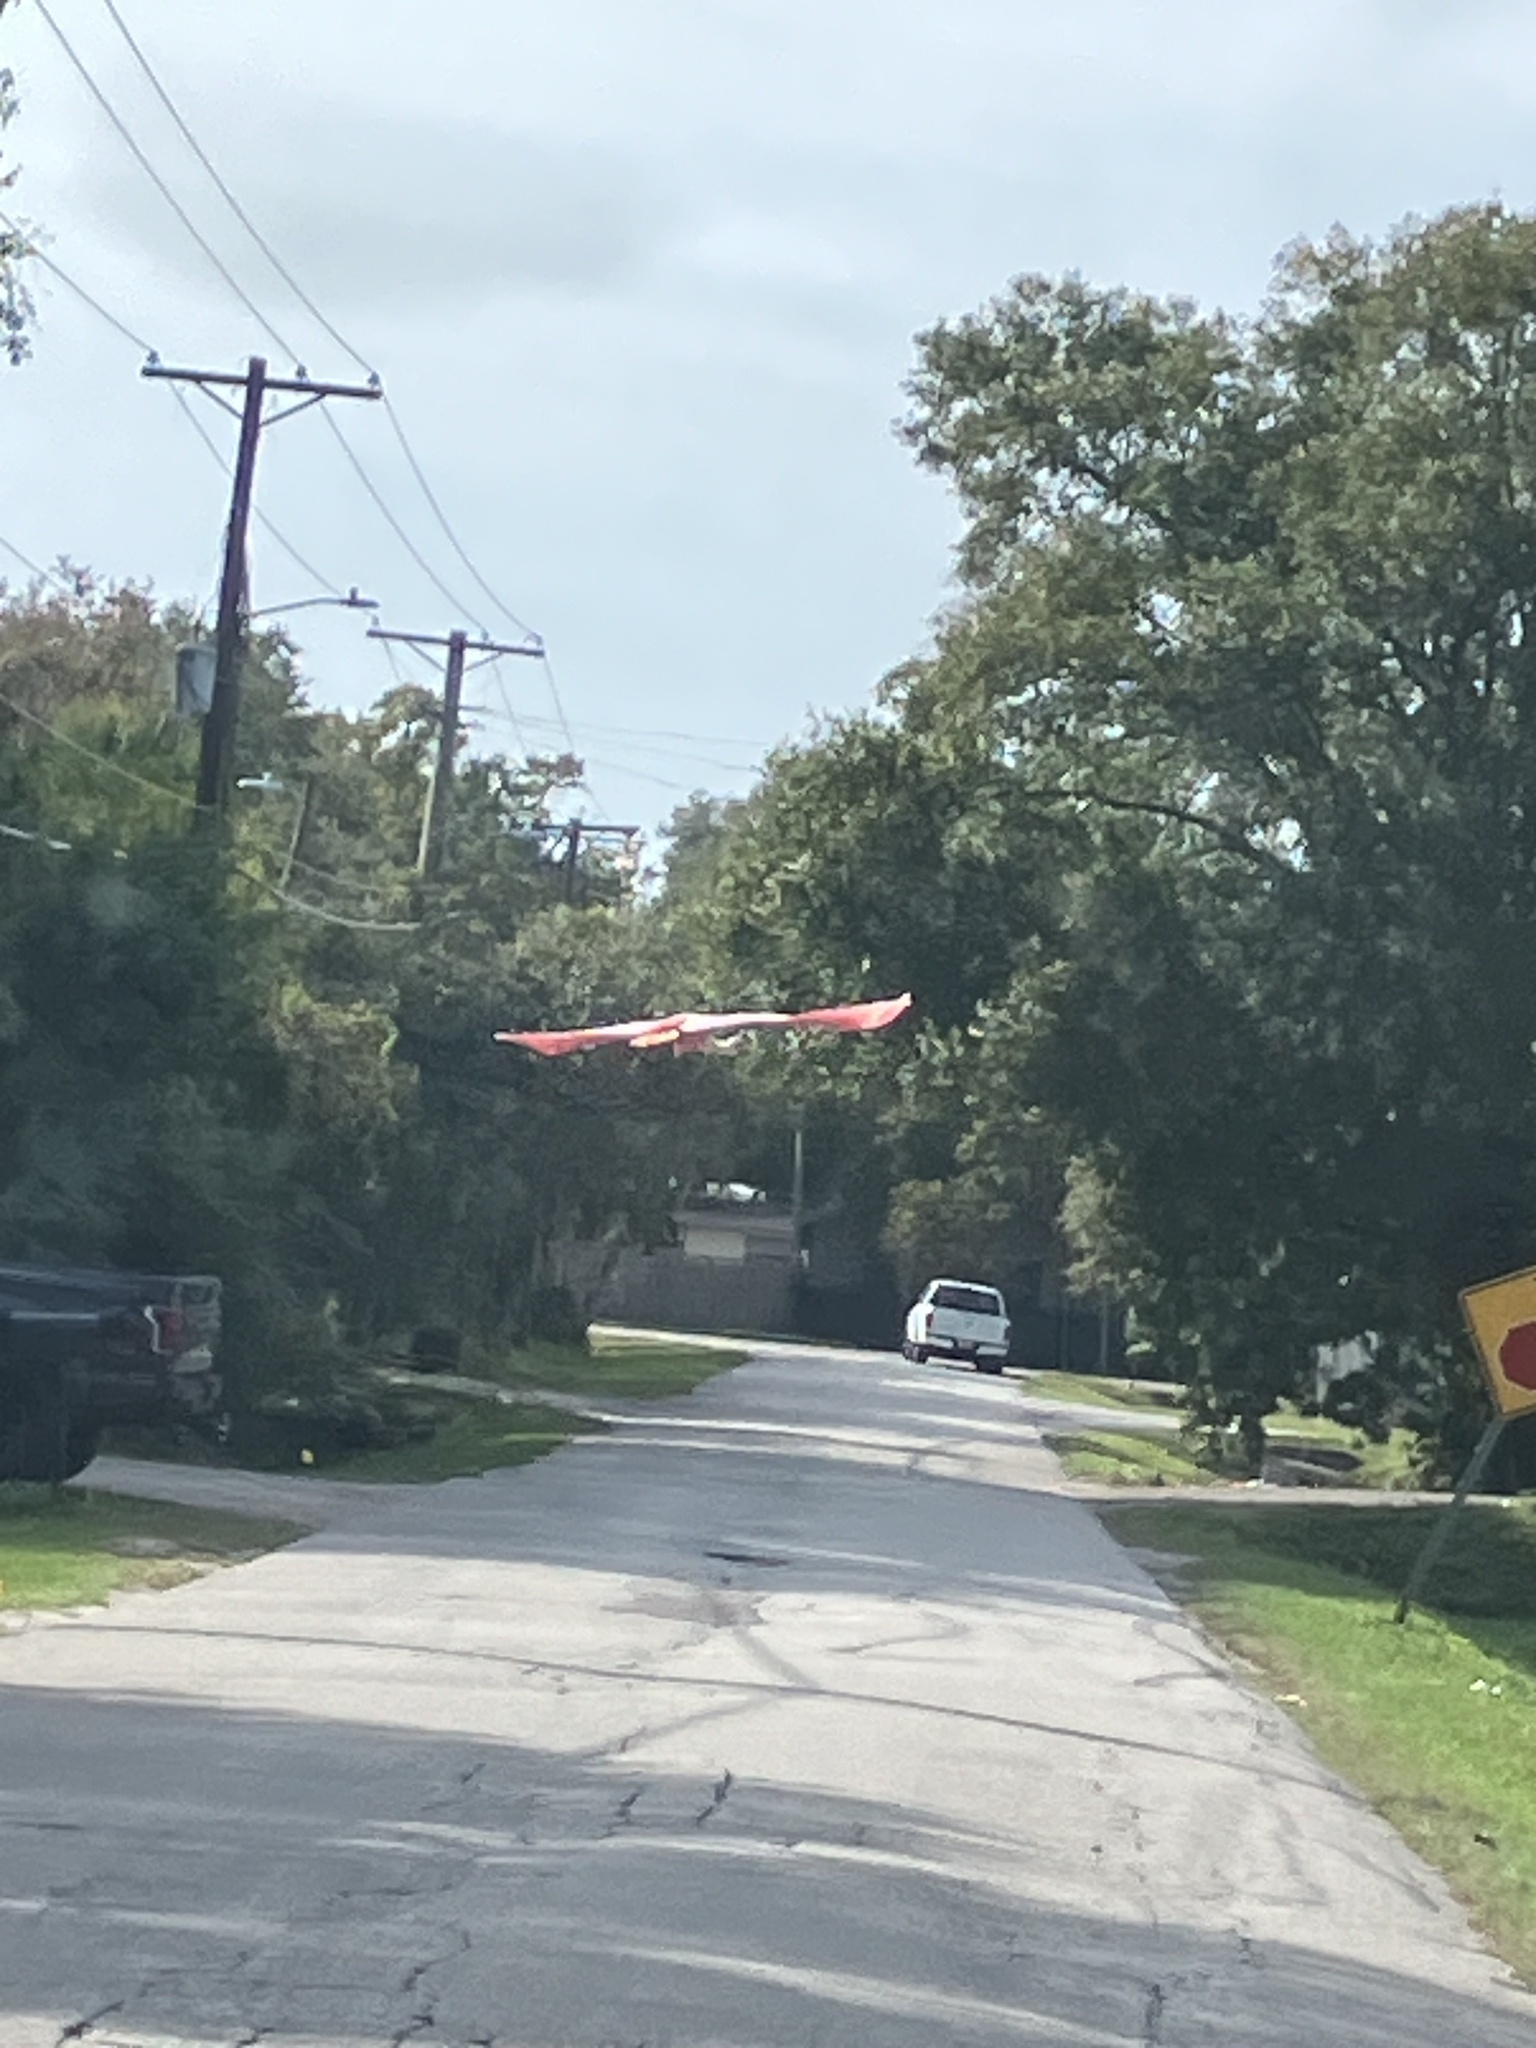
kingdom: Animalia
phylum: Chordata
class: Aves
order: Pelecaniformes
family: Threskiornithidae
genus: Platalea
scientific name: Platalea ajaja
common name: Roseate spoonbill
